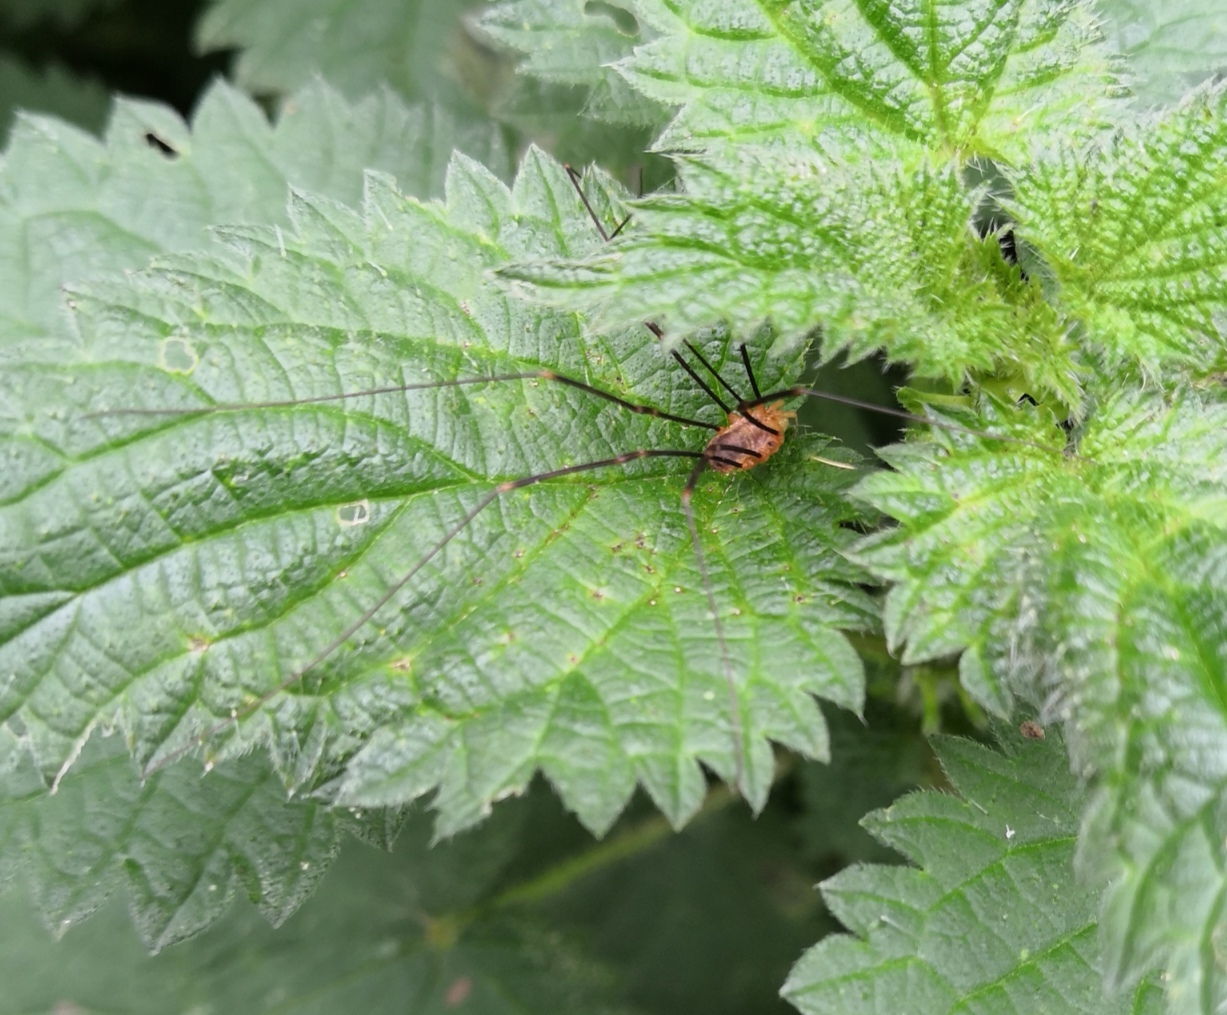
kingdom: Animalia
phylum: Arthropoda
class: Arachnida
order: Opiliones
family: Phalangiidae
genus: Opilio
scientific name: Opilio canestrinii
